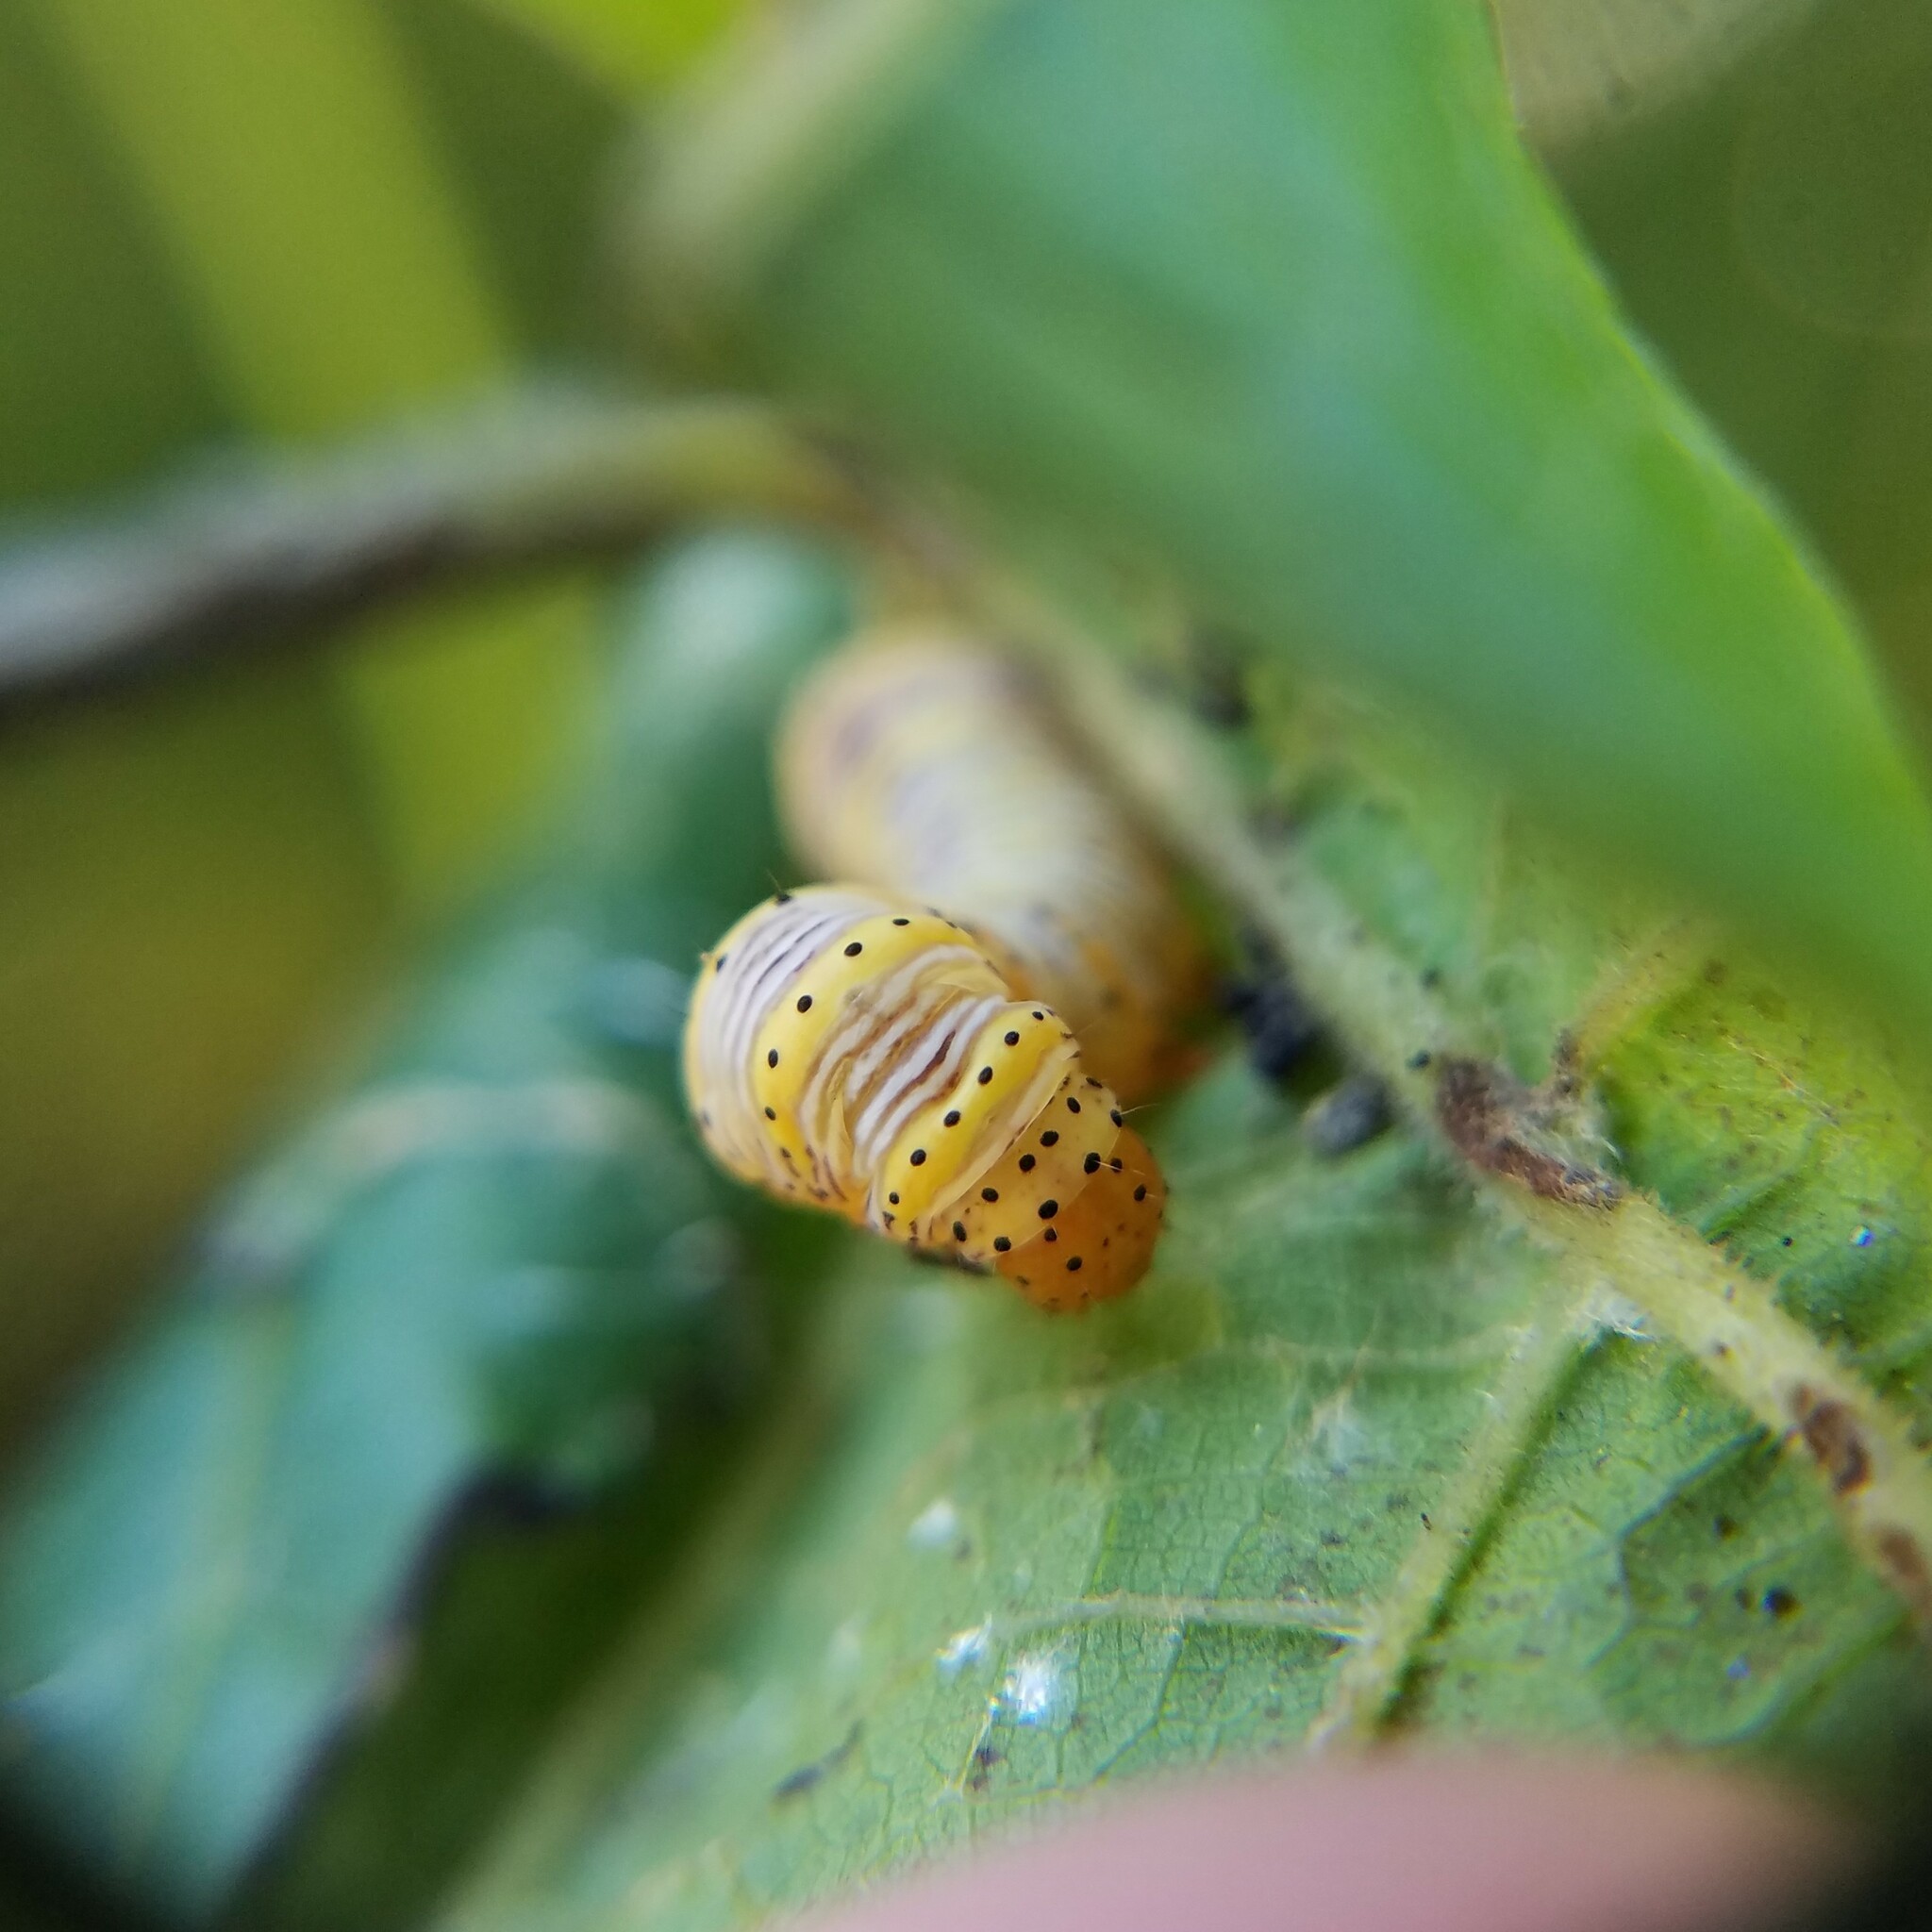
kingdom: Animalia
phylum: Arthropoda
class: Insecta
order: Lepidoptera
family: Noctuidae
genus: Eudryas
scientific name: Eudryas grata
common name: Beautiful wood-nymph
